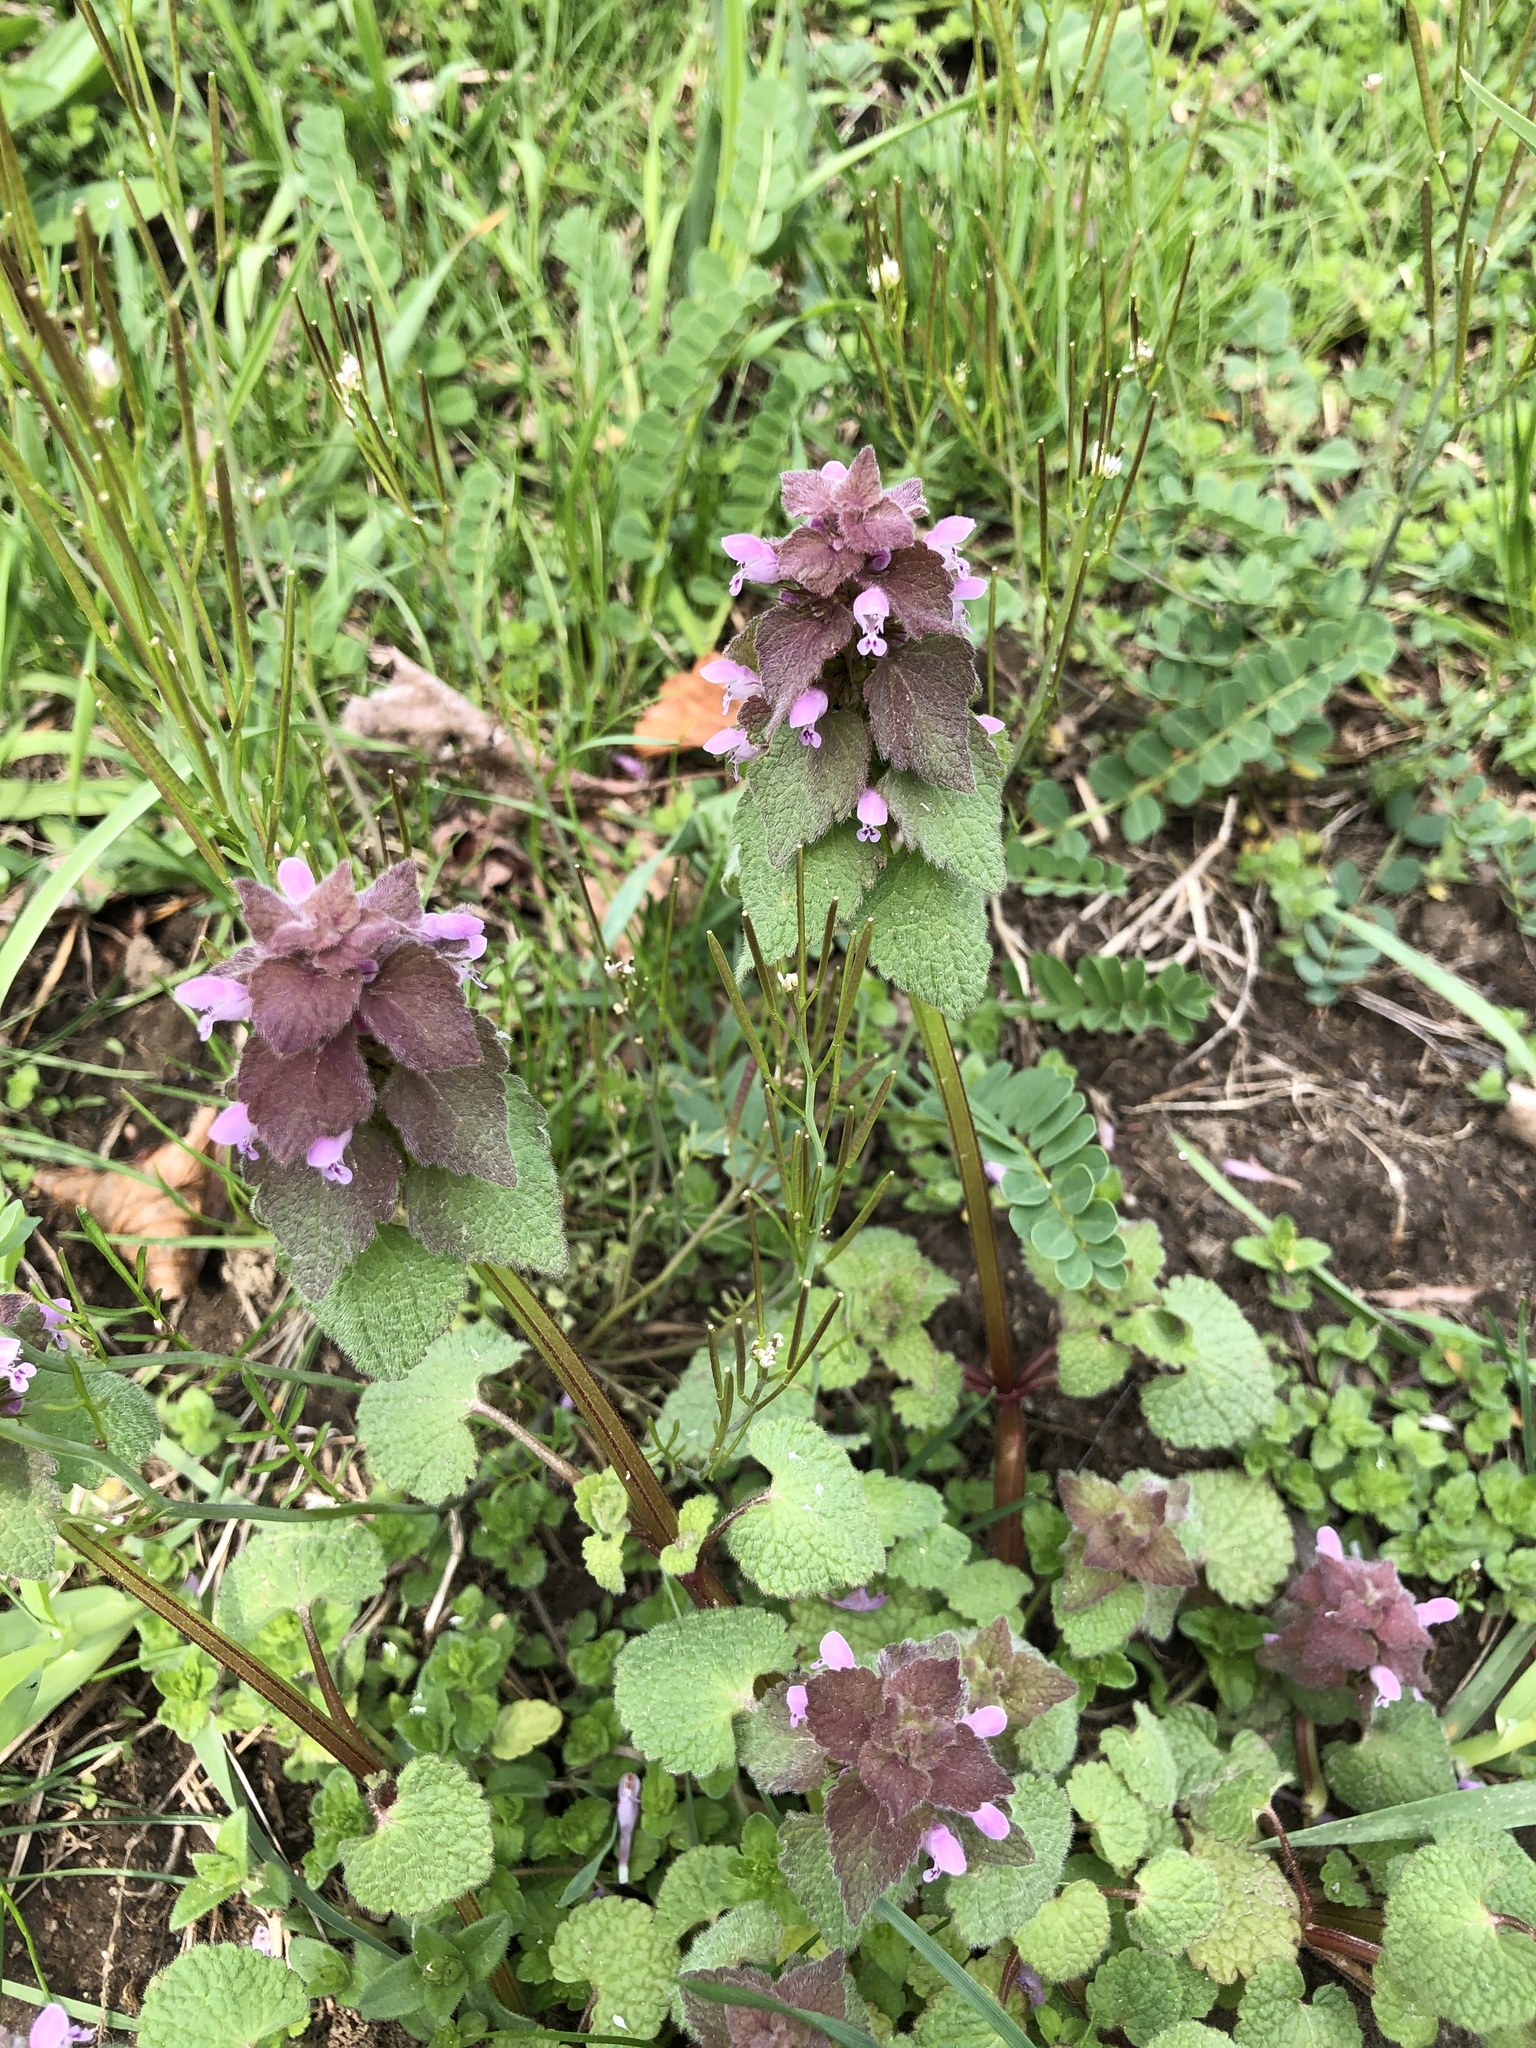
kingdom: Plantae
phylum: Tracheophyta
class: Magnoliopsida
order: Lamiales
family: Lamiaceae
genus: Lamium
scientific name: Lamium purpureum
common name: Red dead-nettle
